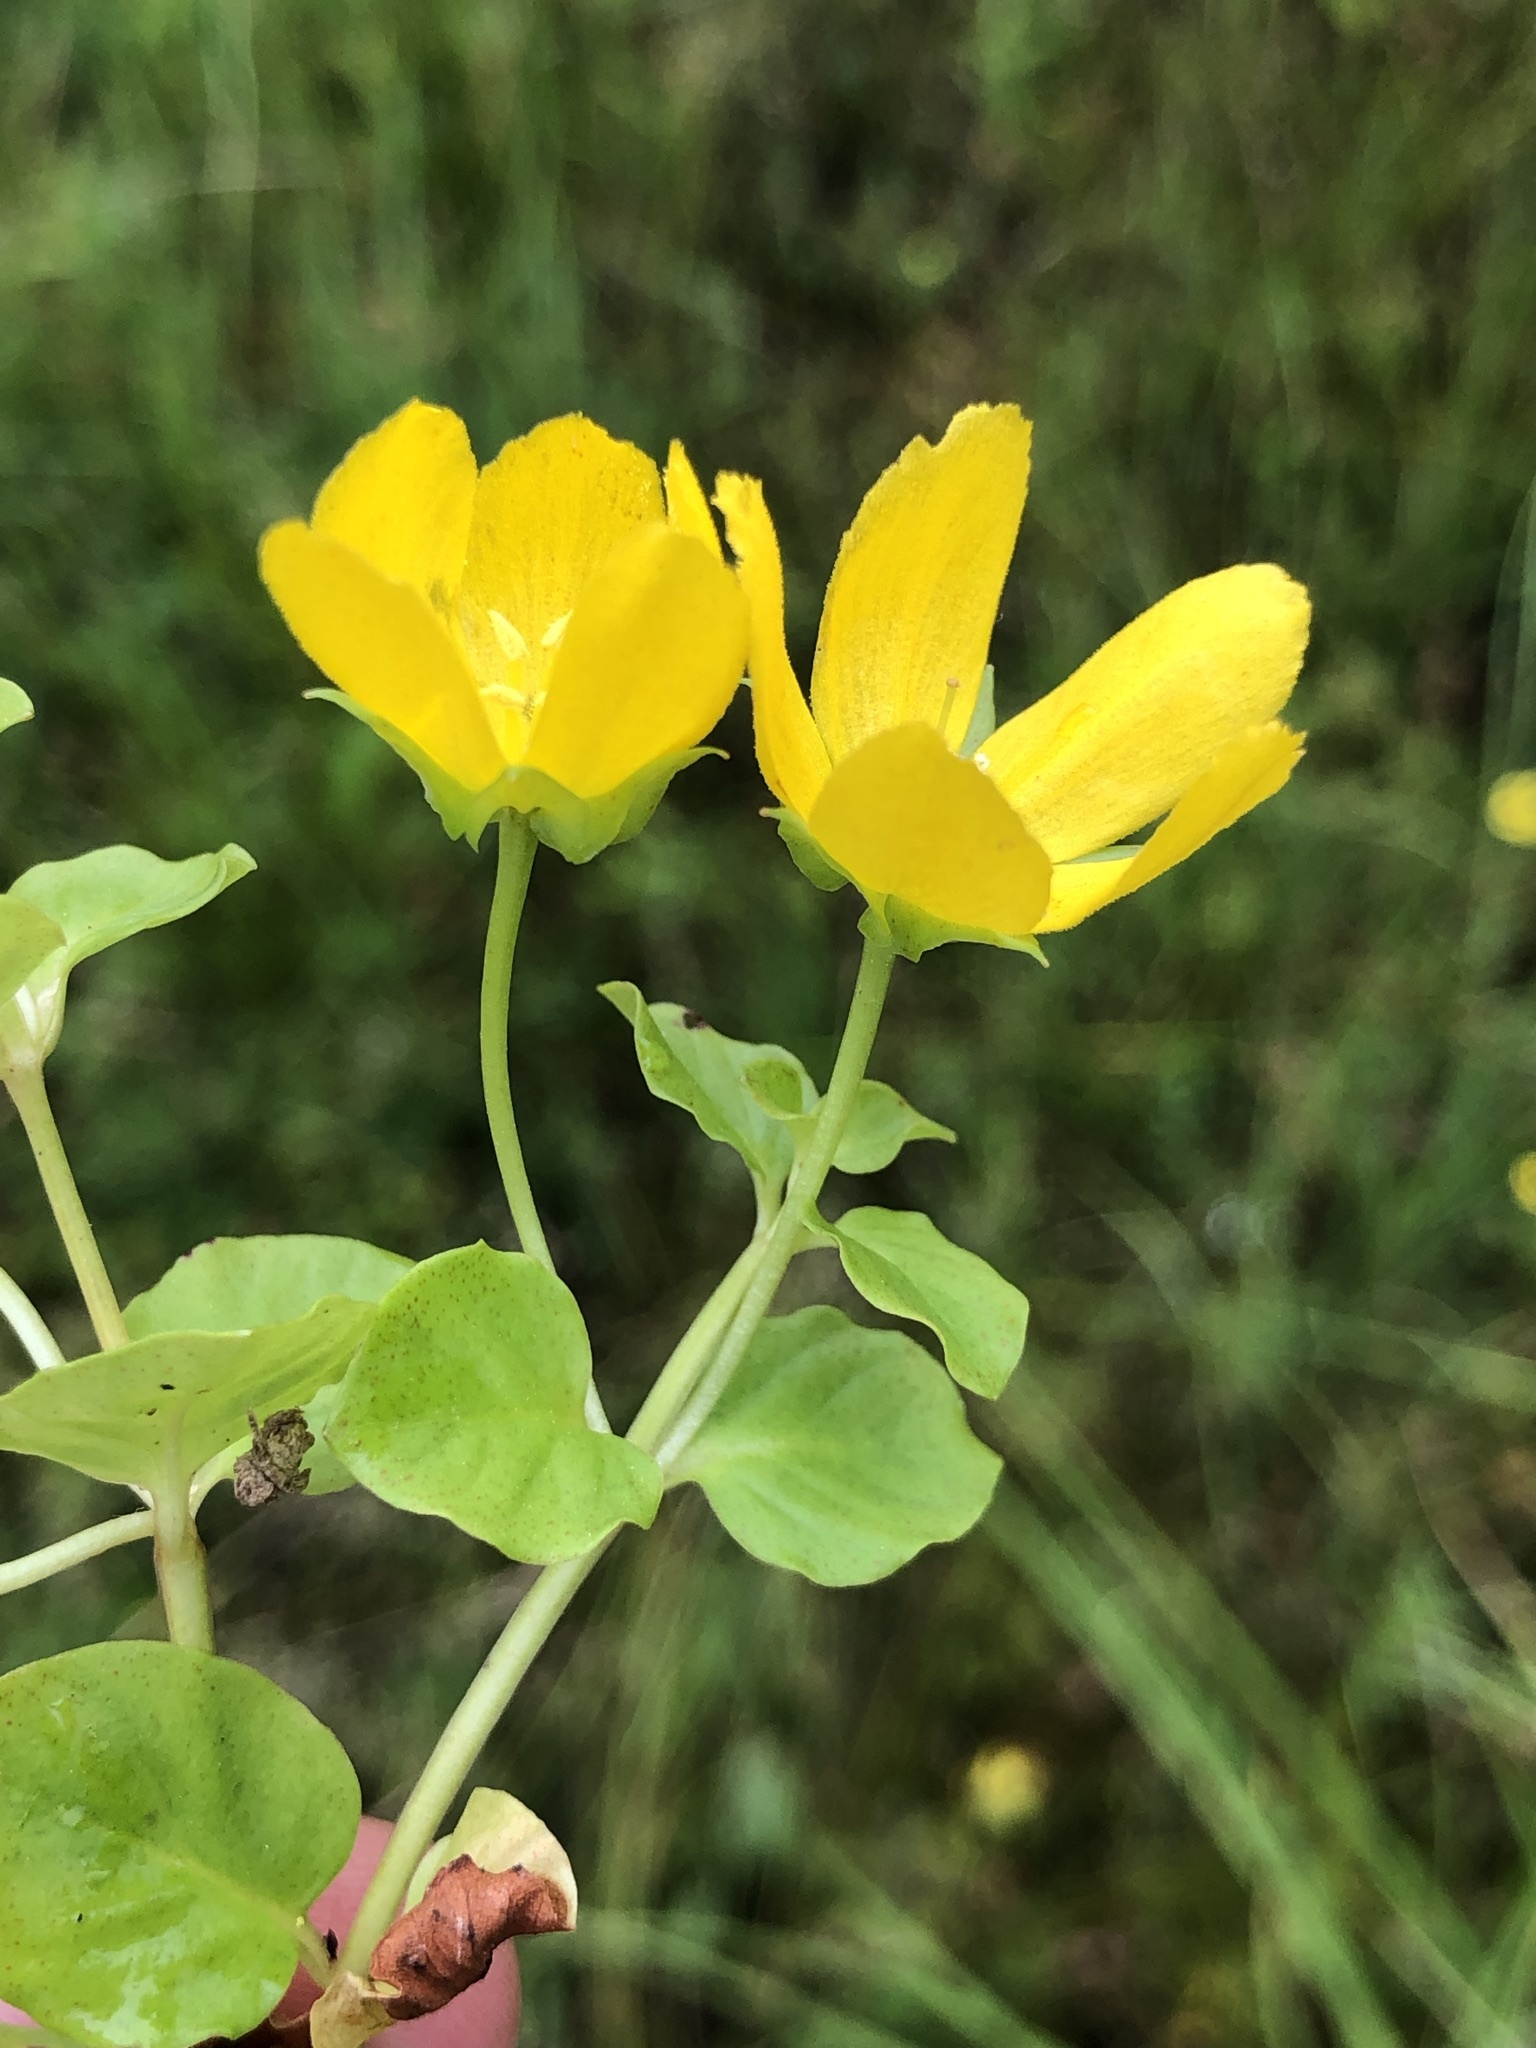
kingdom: Plantae
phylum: Tracheophyta
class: Magnoliopsida
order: Ericales
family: Primulaceae
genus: Lysimachia
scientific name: Lysimachia nummularia
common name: Moneywort
